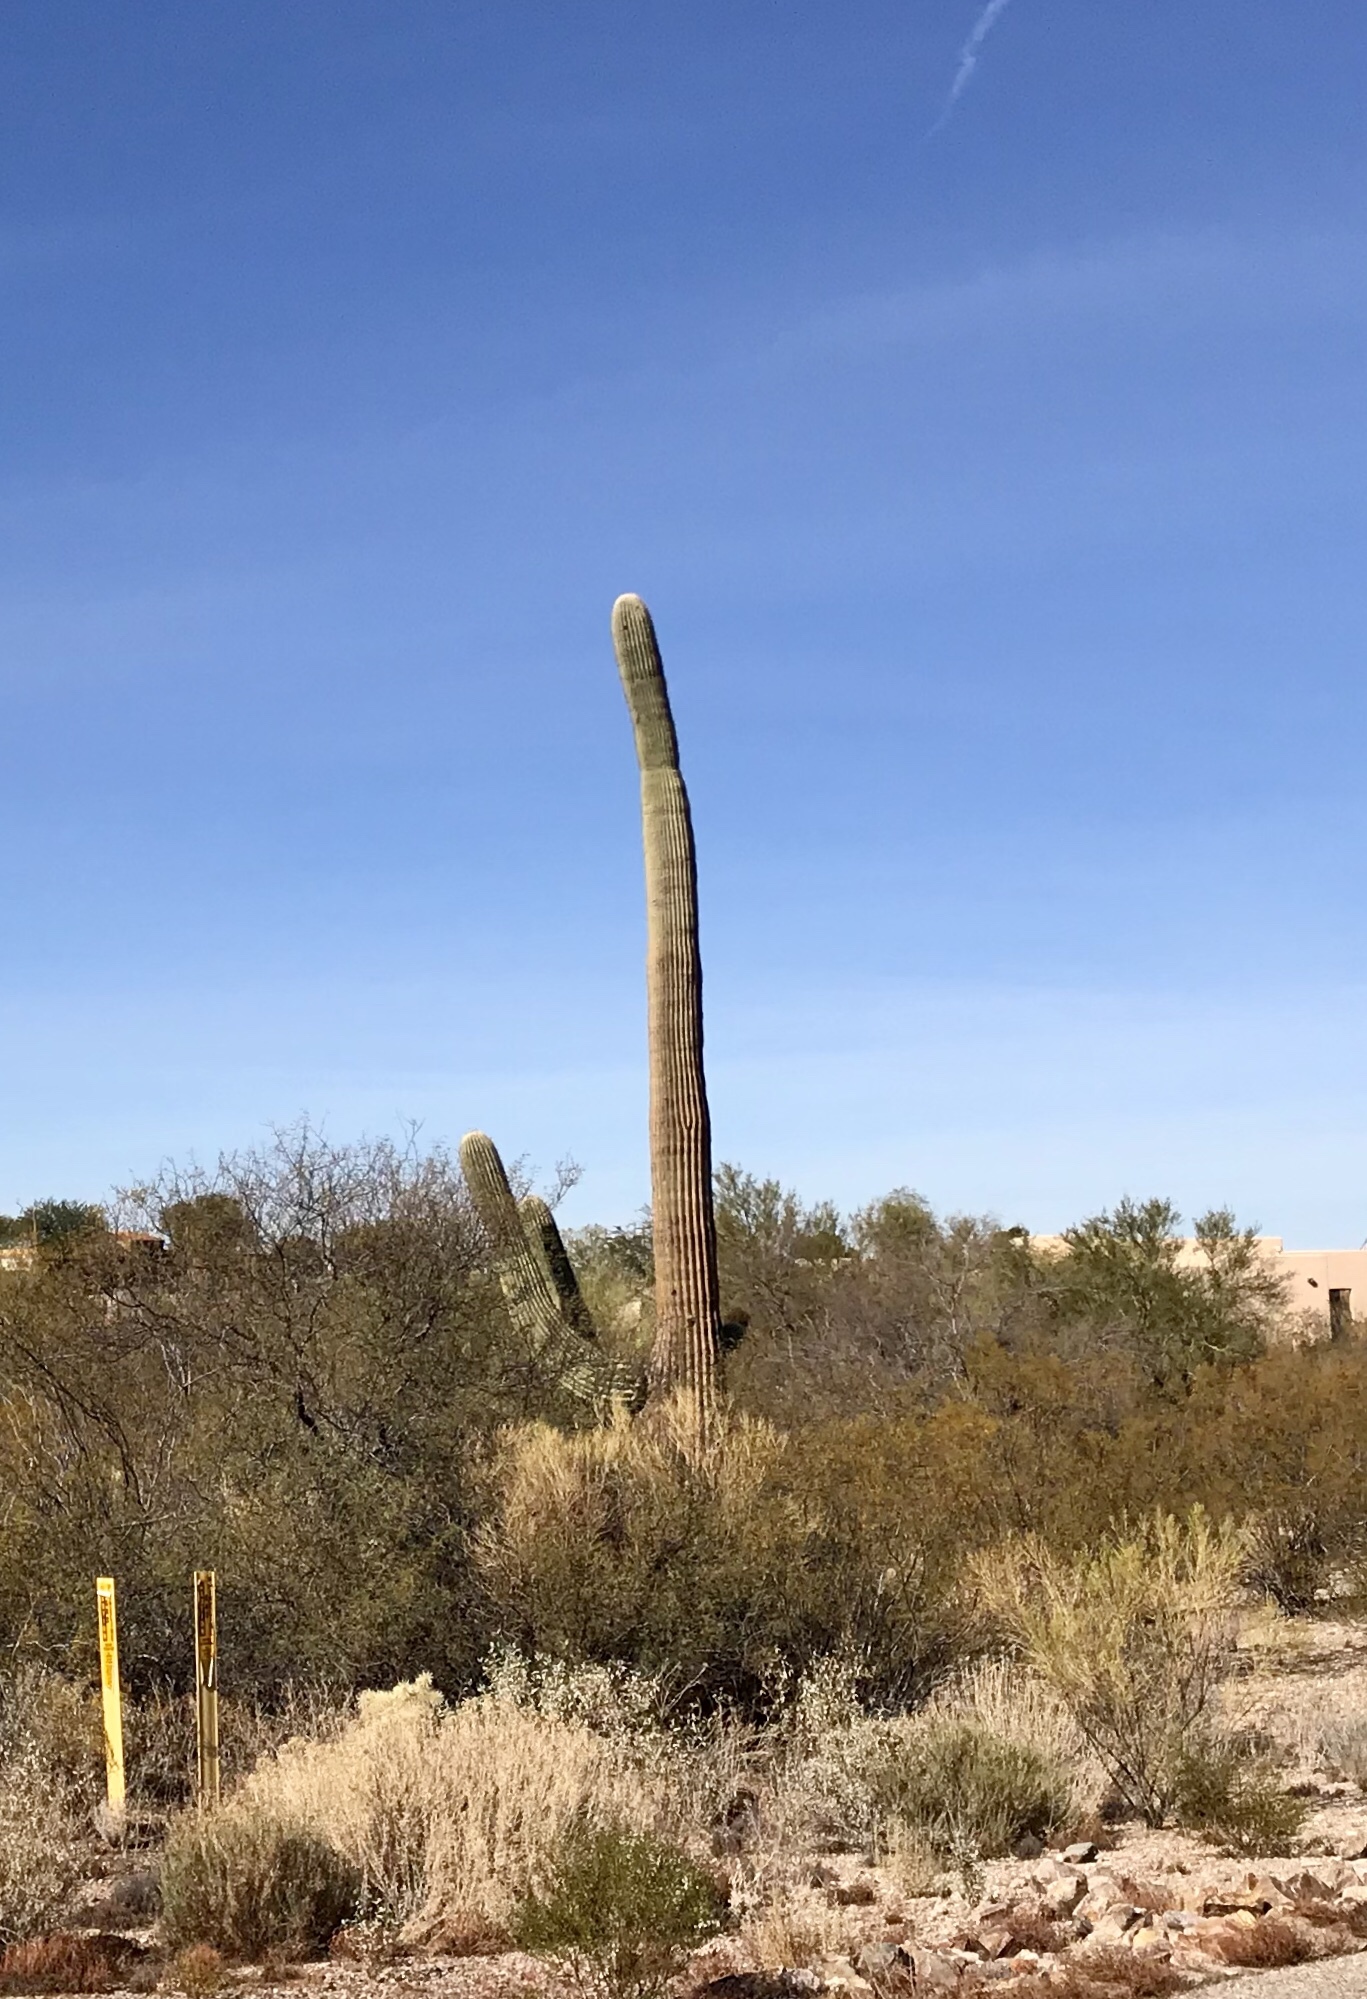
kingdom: Plantae
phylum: Tracheophyta
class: Magnoliopsida
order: Caryophyllales
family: Cactaceae
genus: Carnegiea
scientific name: Carnegiea gigantea
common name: Saguaro
